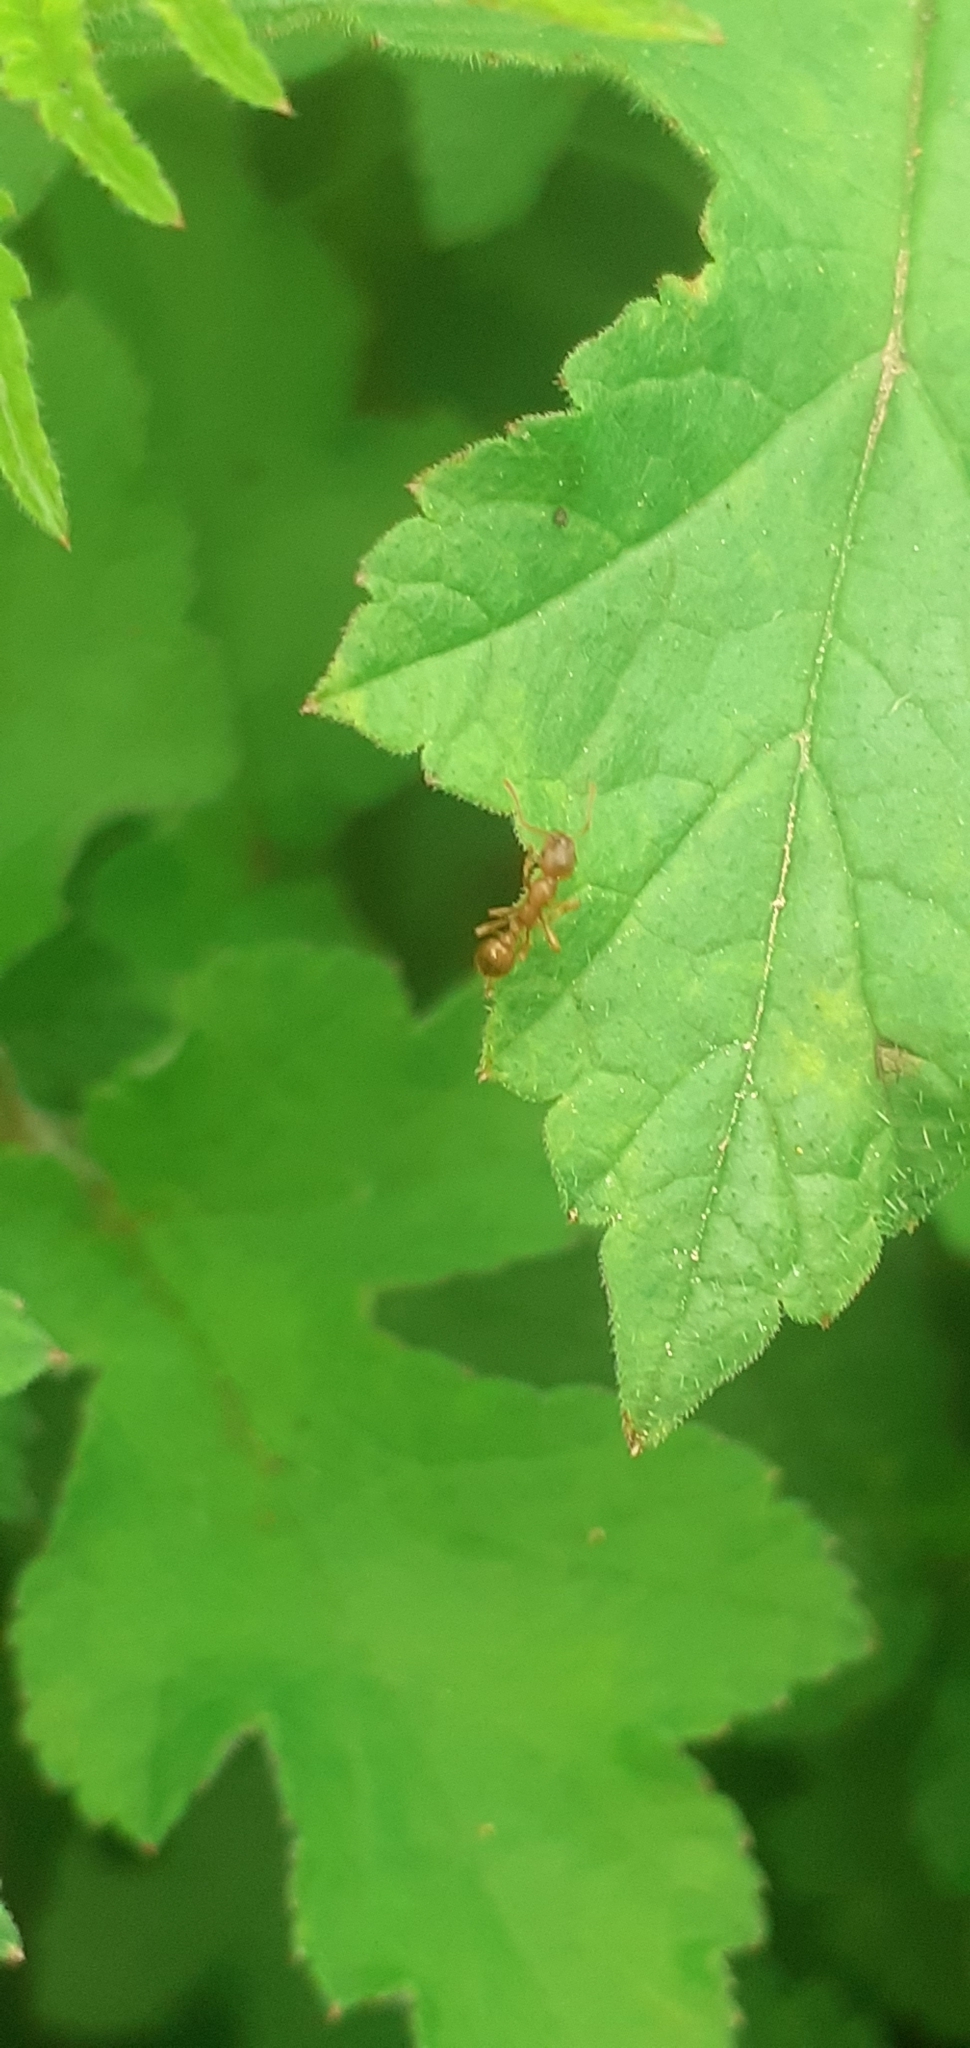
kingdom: Animalia
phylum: Arthropoda
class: Insecta
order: Hymenoptera
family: Formicidae
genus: Lasius
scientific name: Lasius flavus
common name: Blond field ant
